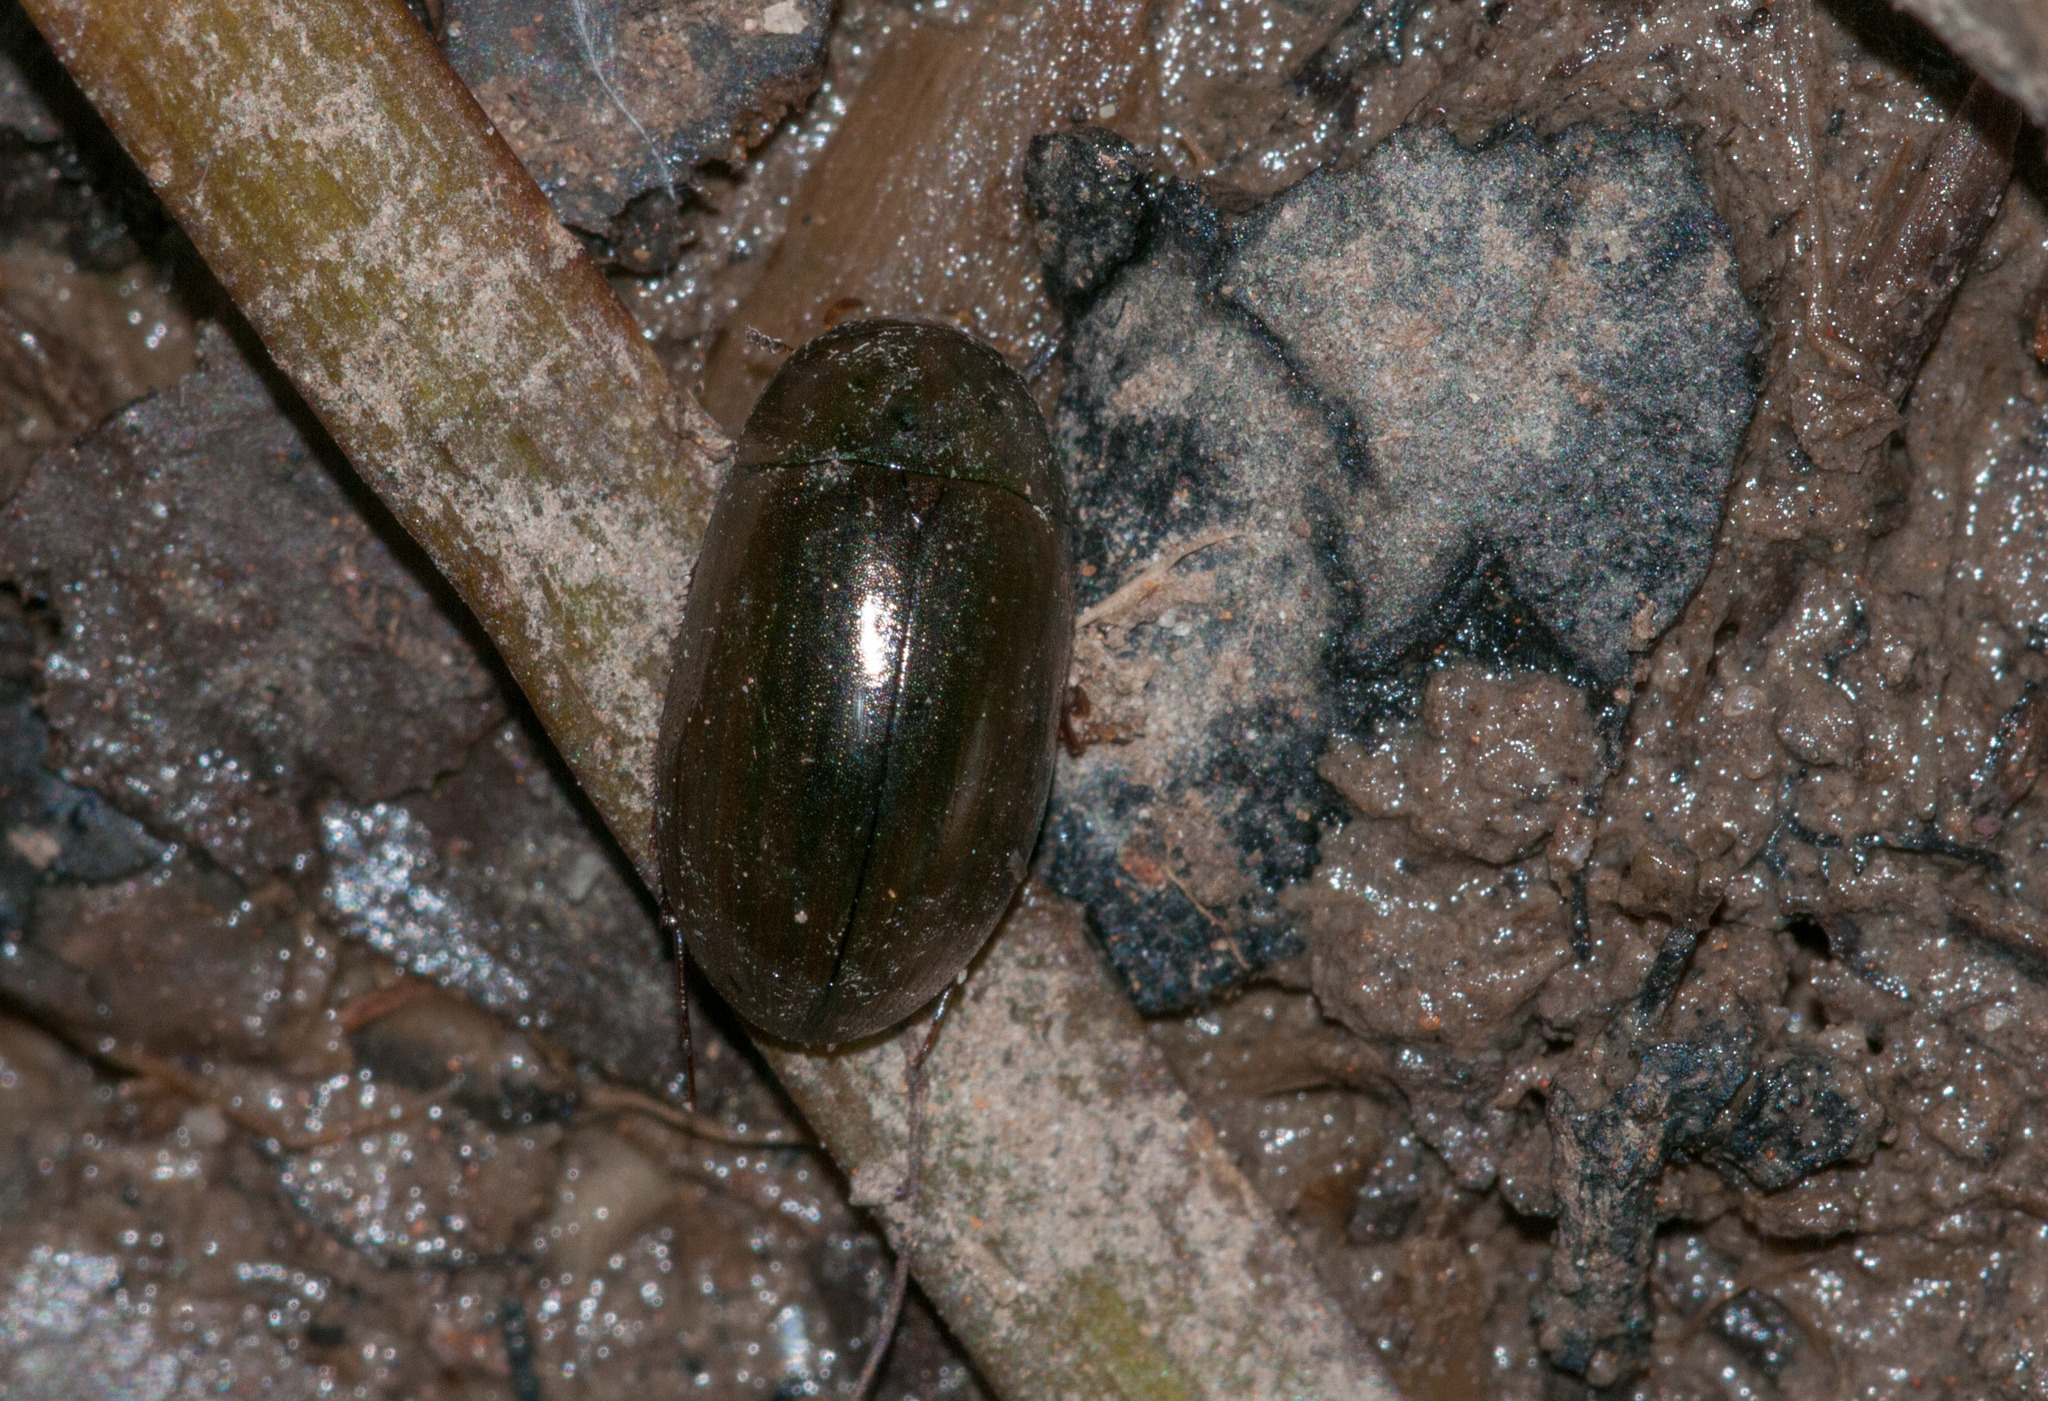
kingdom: Animalia
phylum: Arthropoda
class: Insecta
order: Coleoptera
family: Hydrophilidae
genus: Limnoxenus
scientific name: Limnoxenus zealandicus
